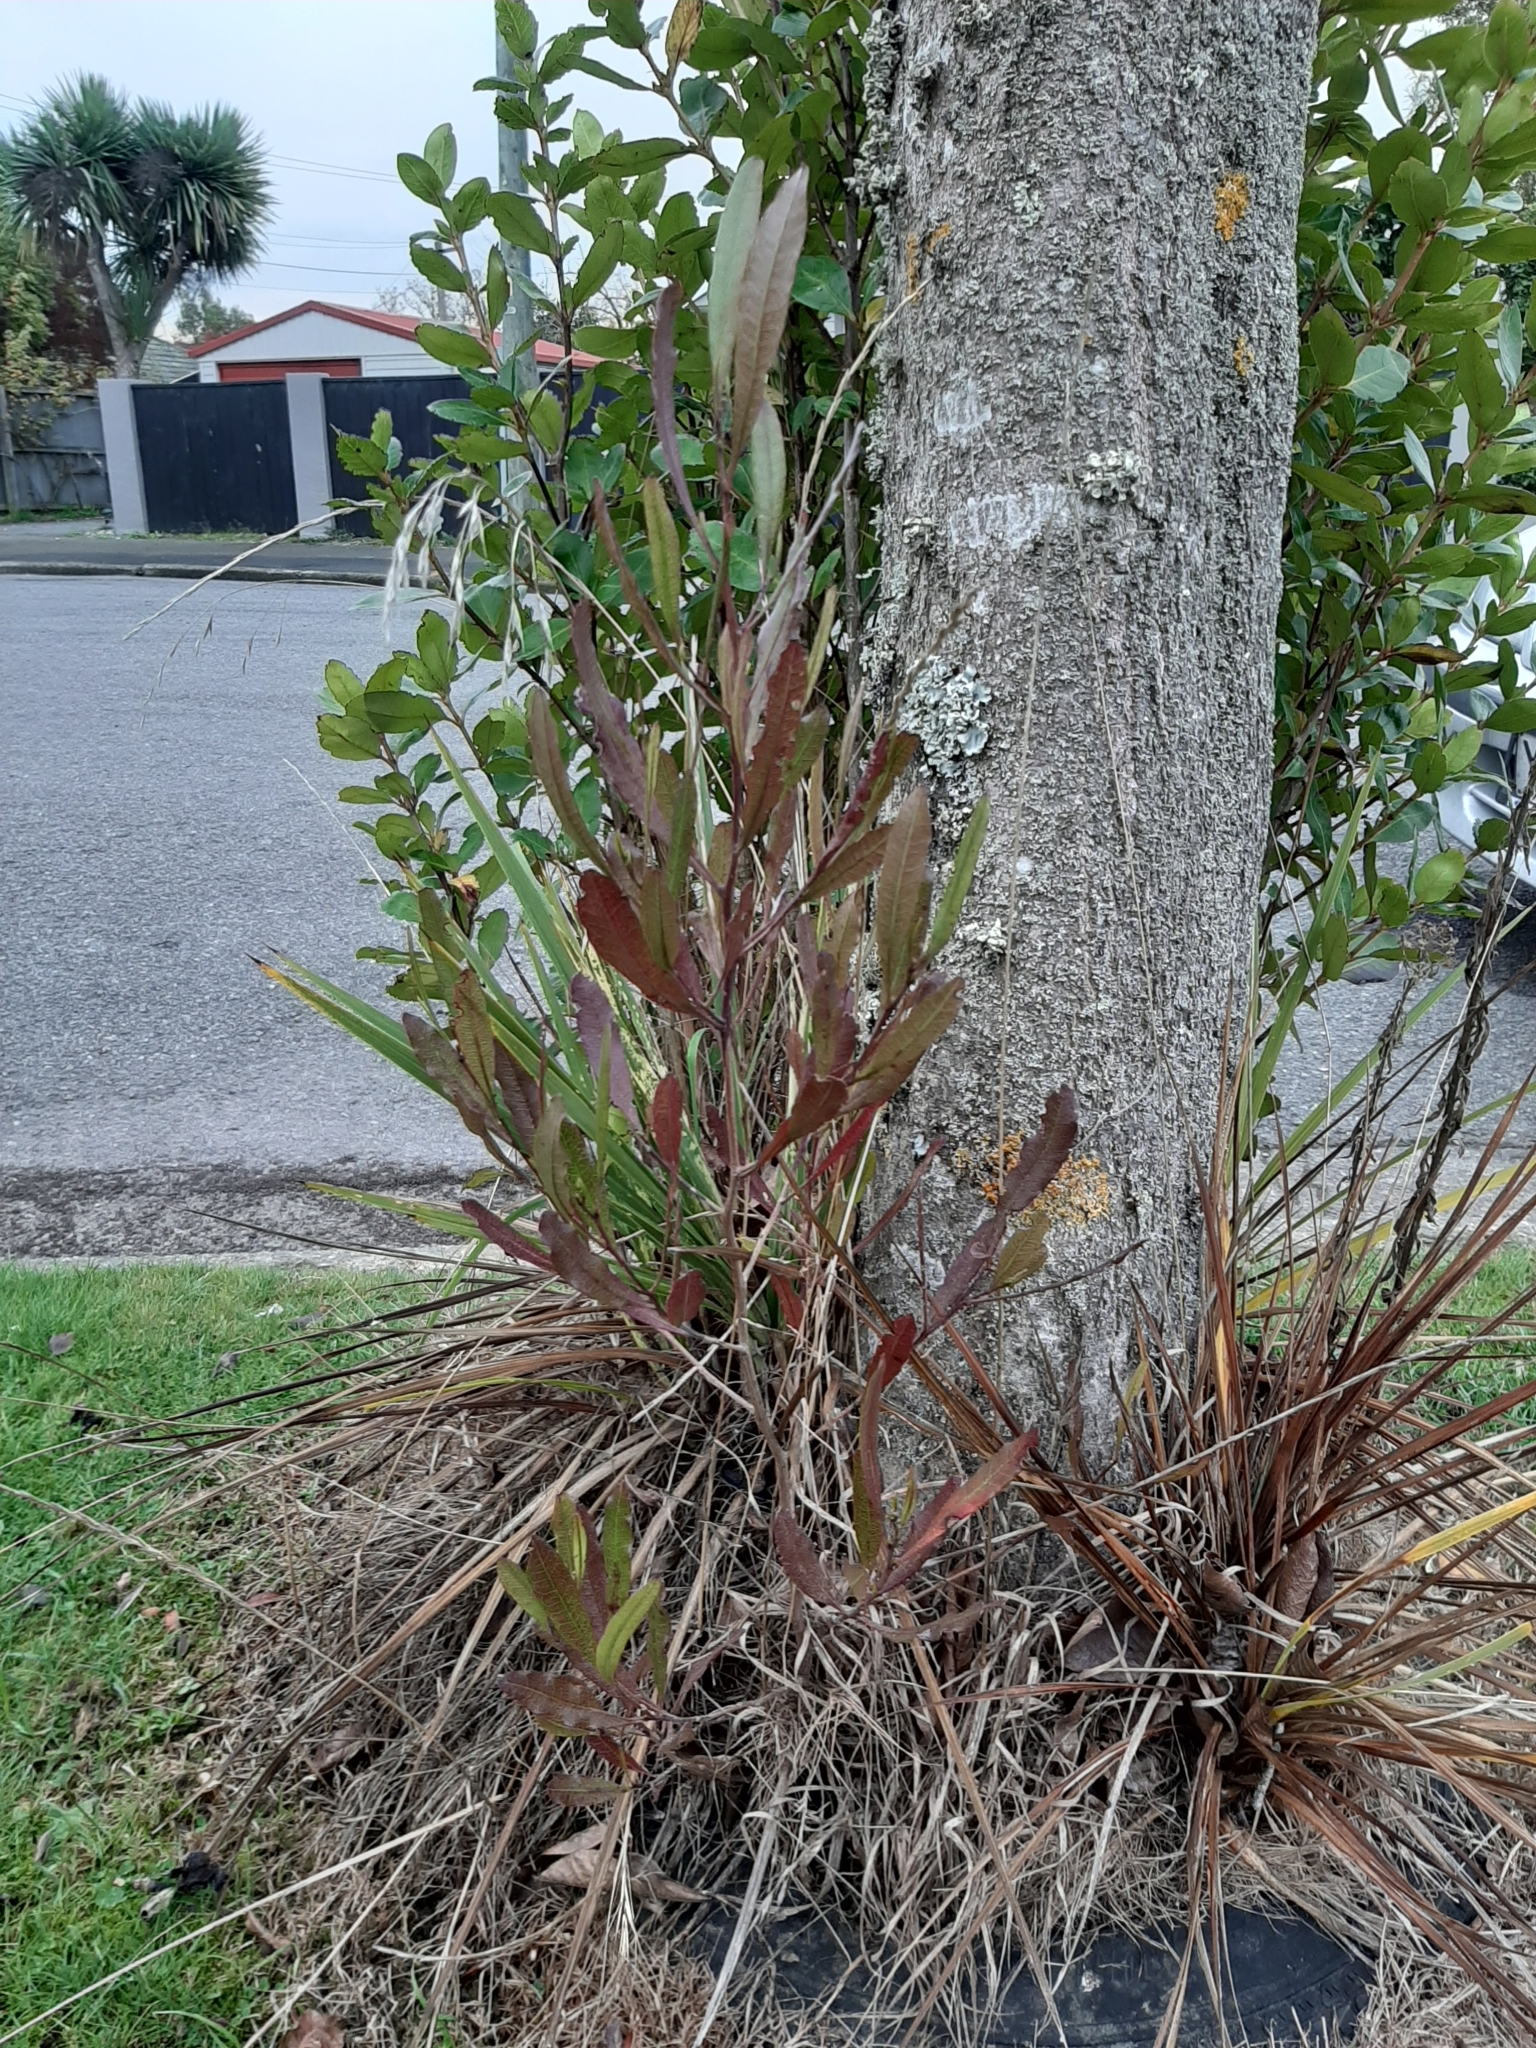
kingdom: Plantae
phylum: Tracheophyta
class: Magnoliopsida
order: Sapindales
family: Sapindaceae
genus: Dodonaea
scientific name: Dodonaea viscosa
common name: Hopbush
